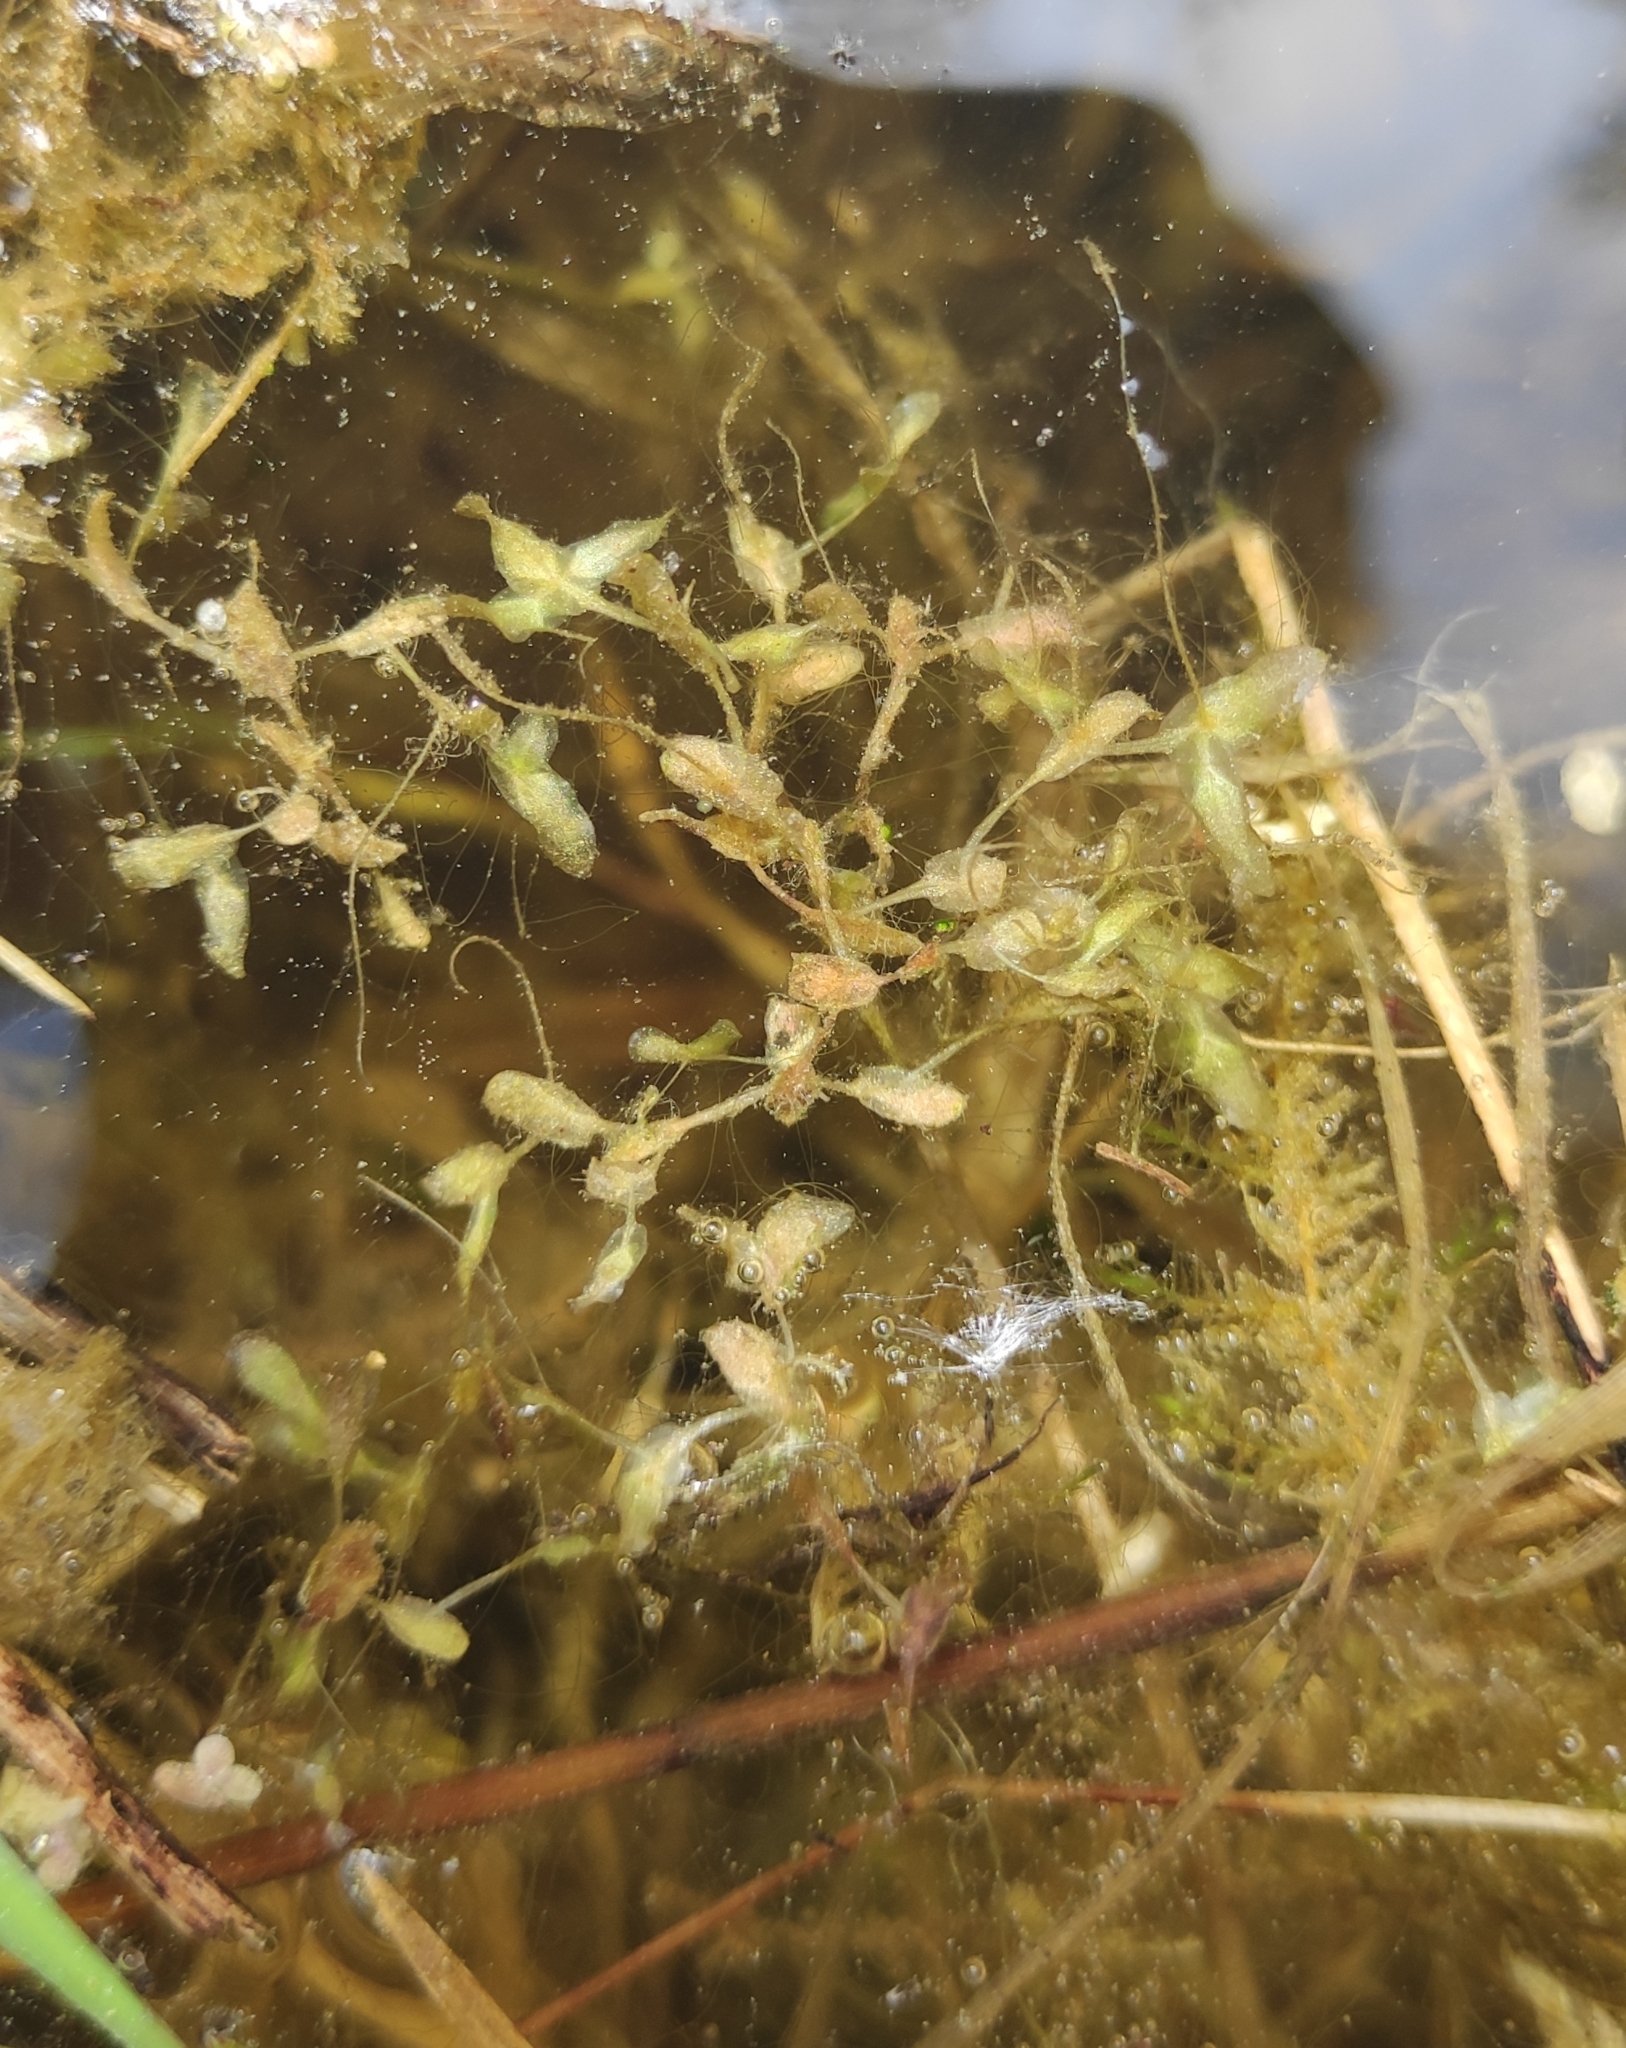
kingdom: Plantae
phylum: Tracheophyta
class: Liliopsida
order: Alismatales
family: Araceae
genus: Lemna
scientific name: Lemna trisulca
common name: Ivy-leaved duckweed
